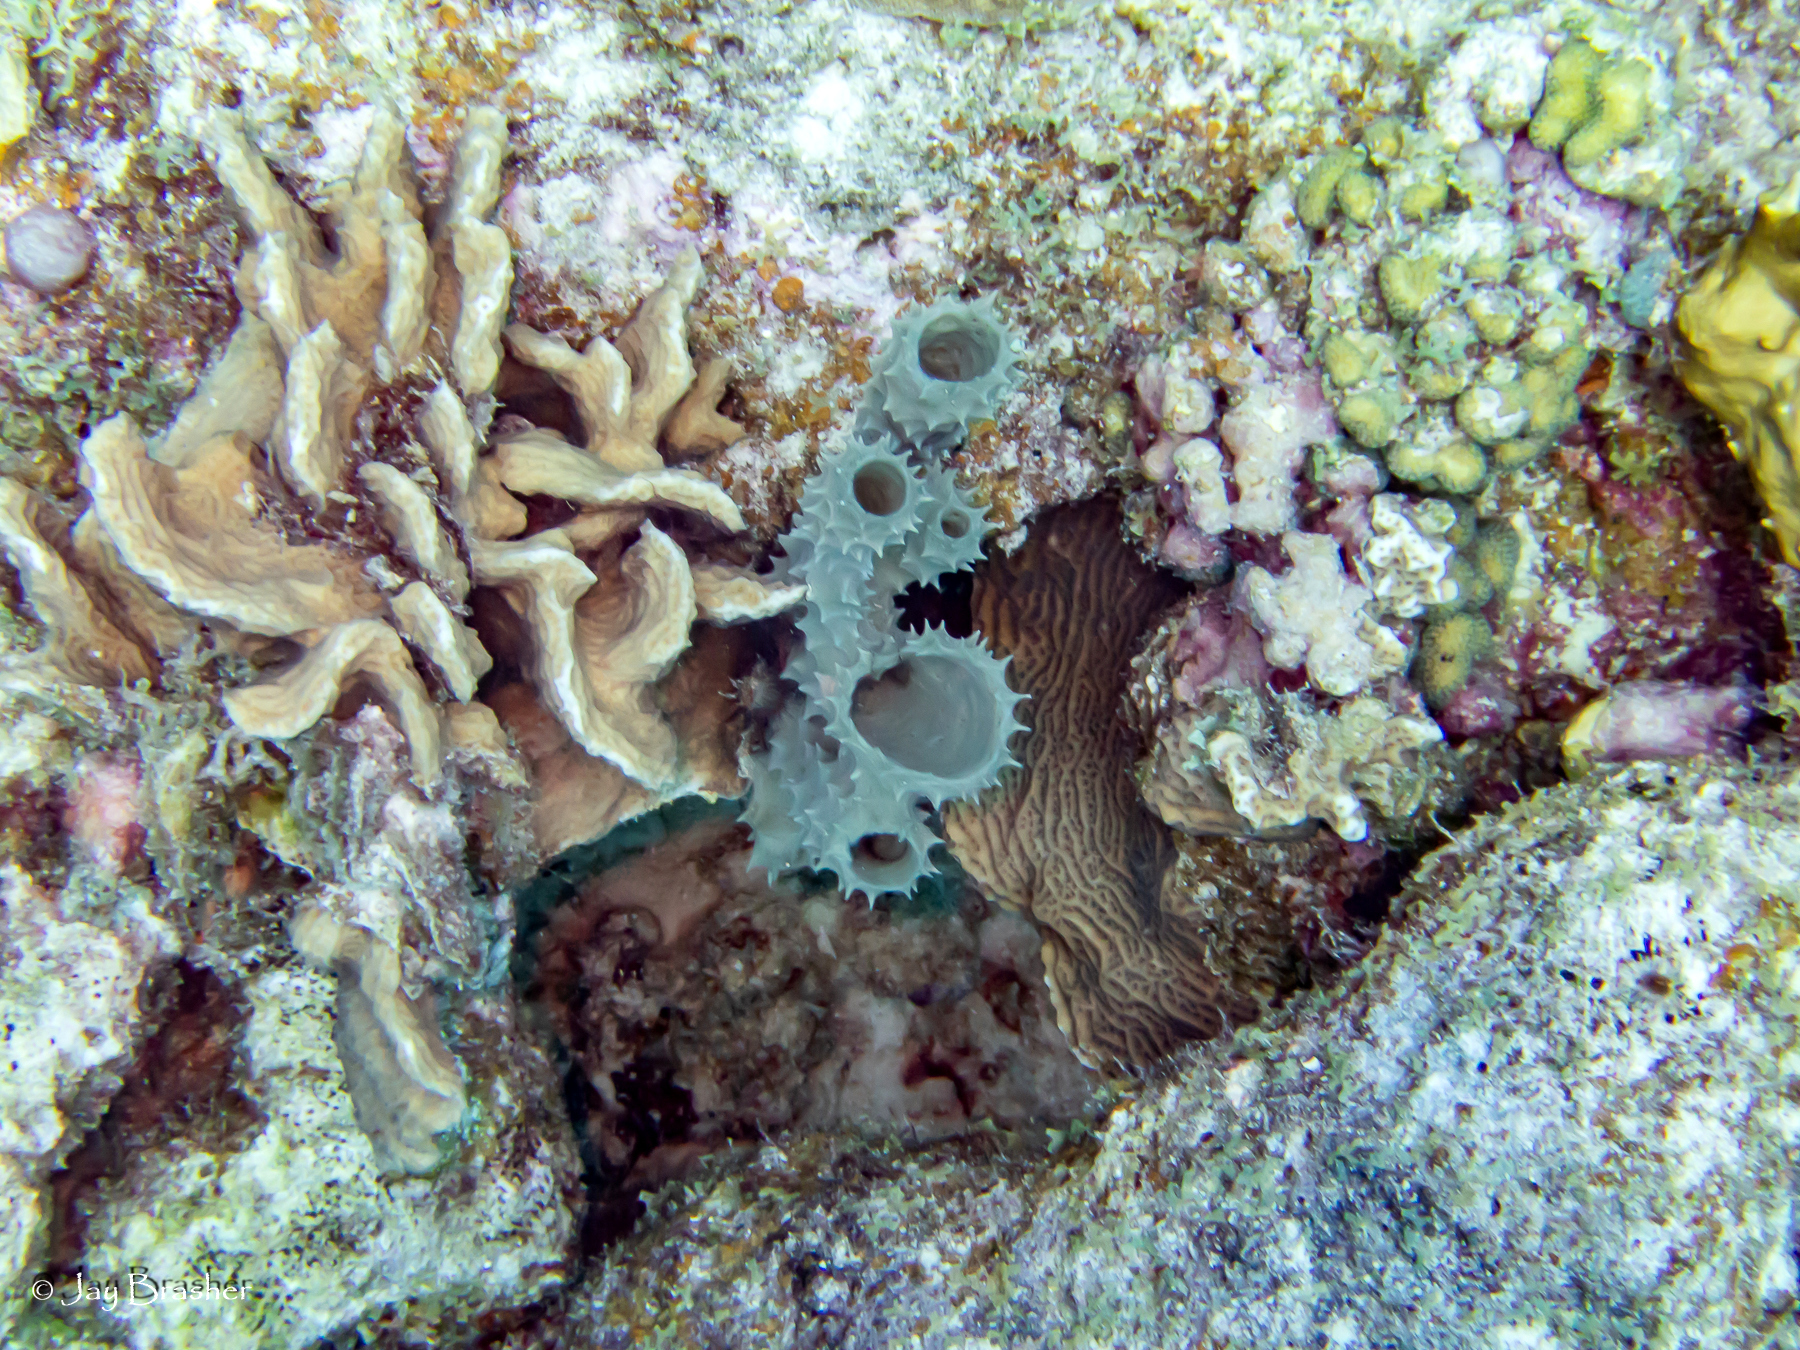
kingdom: Animalia
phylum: Porifera
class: Demospongiae
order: Haplosclerida
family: Callyspongiidae
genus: Callyspongia
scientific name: Callyspongia aculeata
